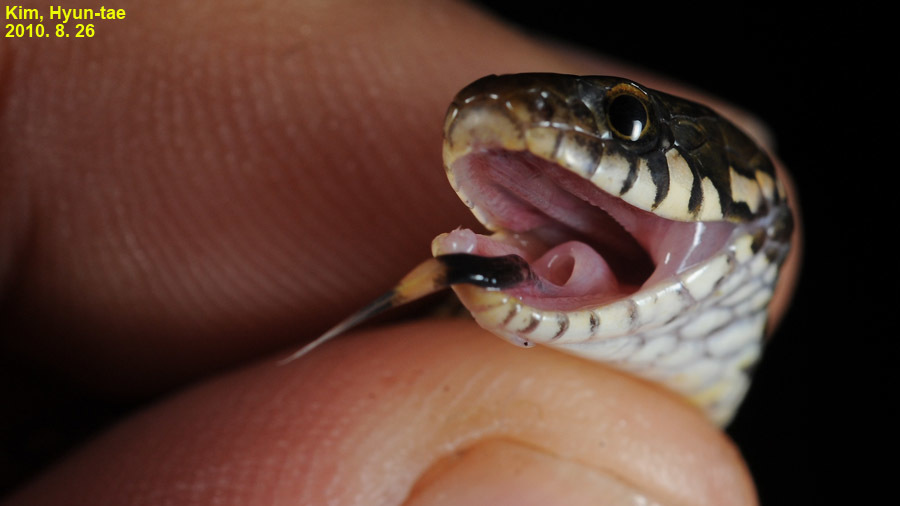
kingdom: Animalia
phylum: Chordata
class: Squamata
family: Colubridae
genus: Hebius
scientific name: Hebius vibakari
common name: Japanese keelback
